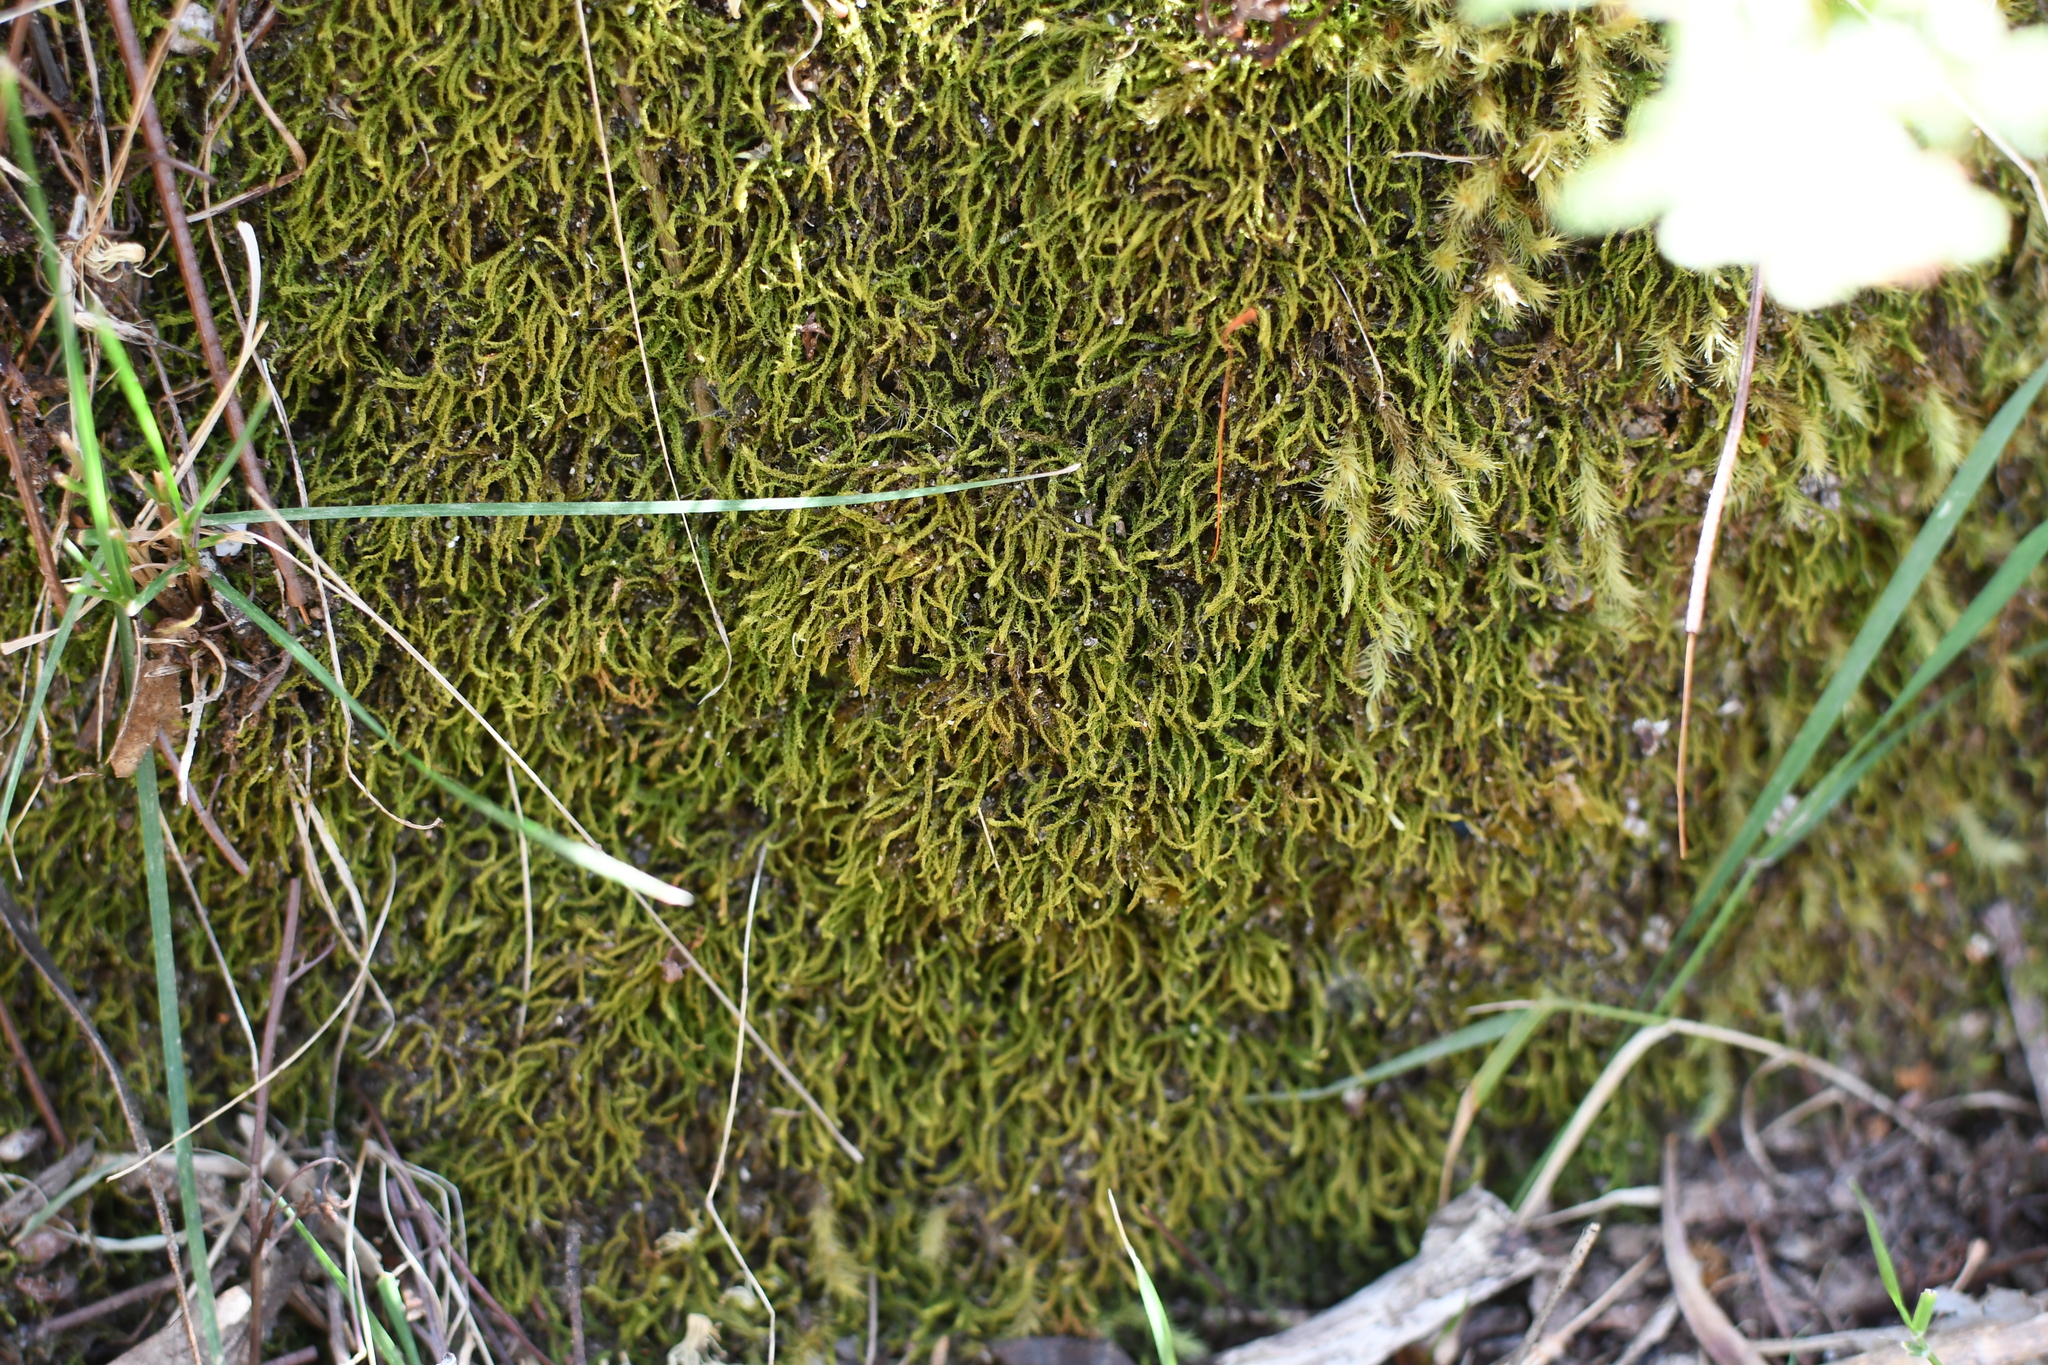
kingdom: Plantae
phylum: Bryophyta
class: Bryopsida
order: Hypnodendrales
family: Racopilaceae
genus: Racopilum
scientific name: Racopilum cuspidigerum
